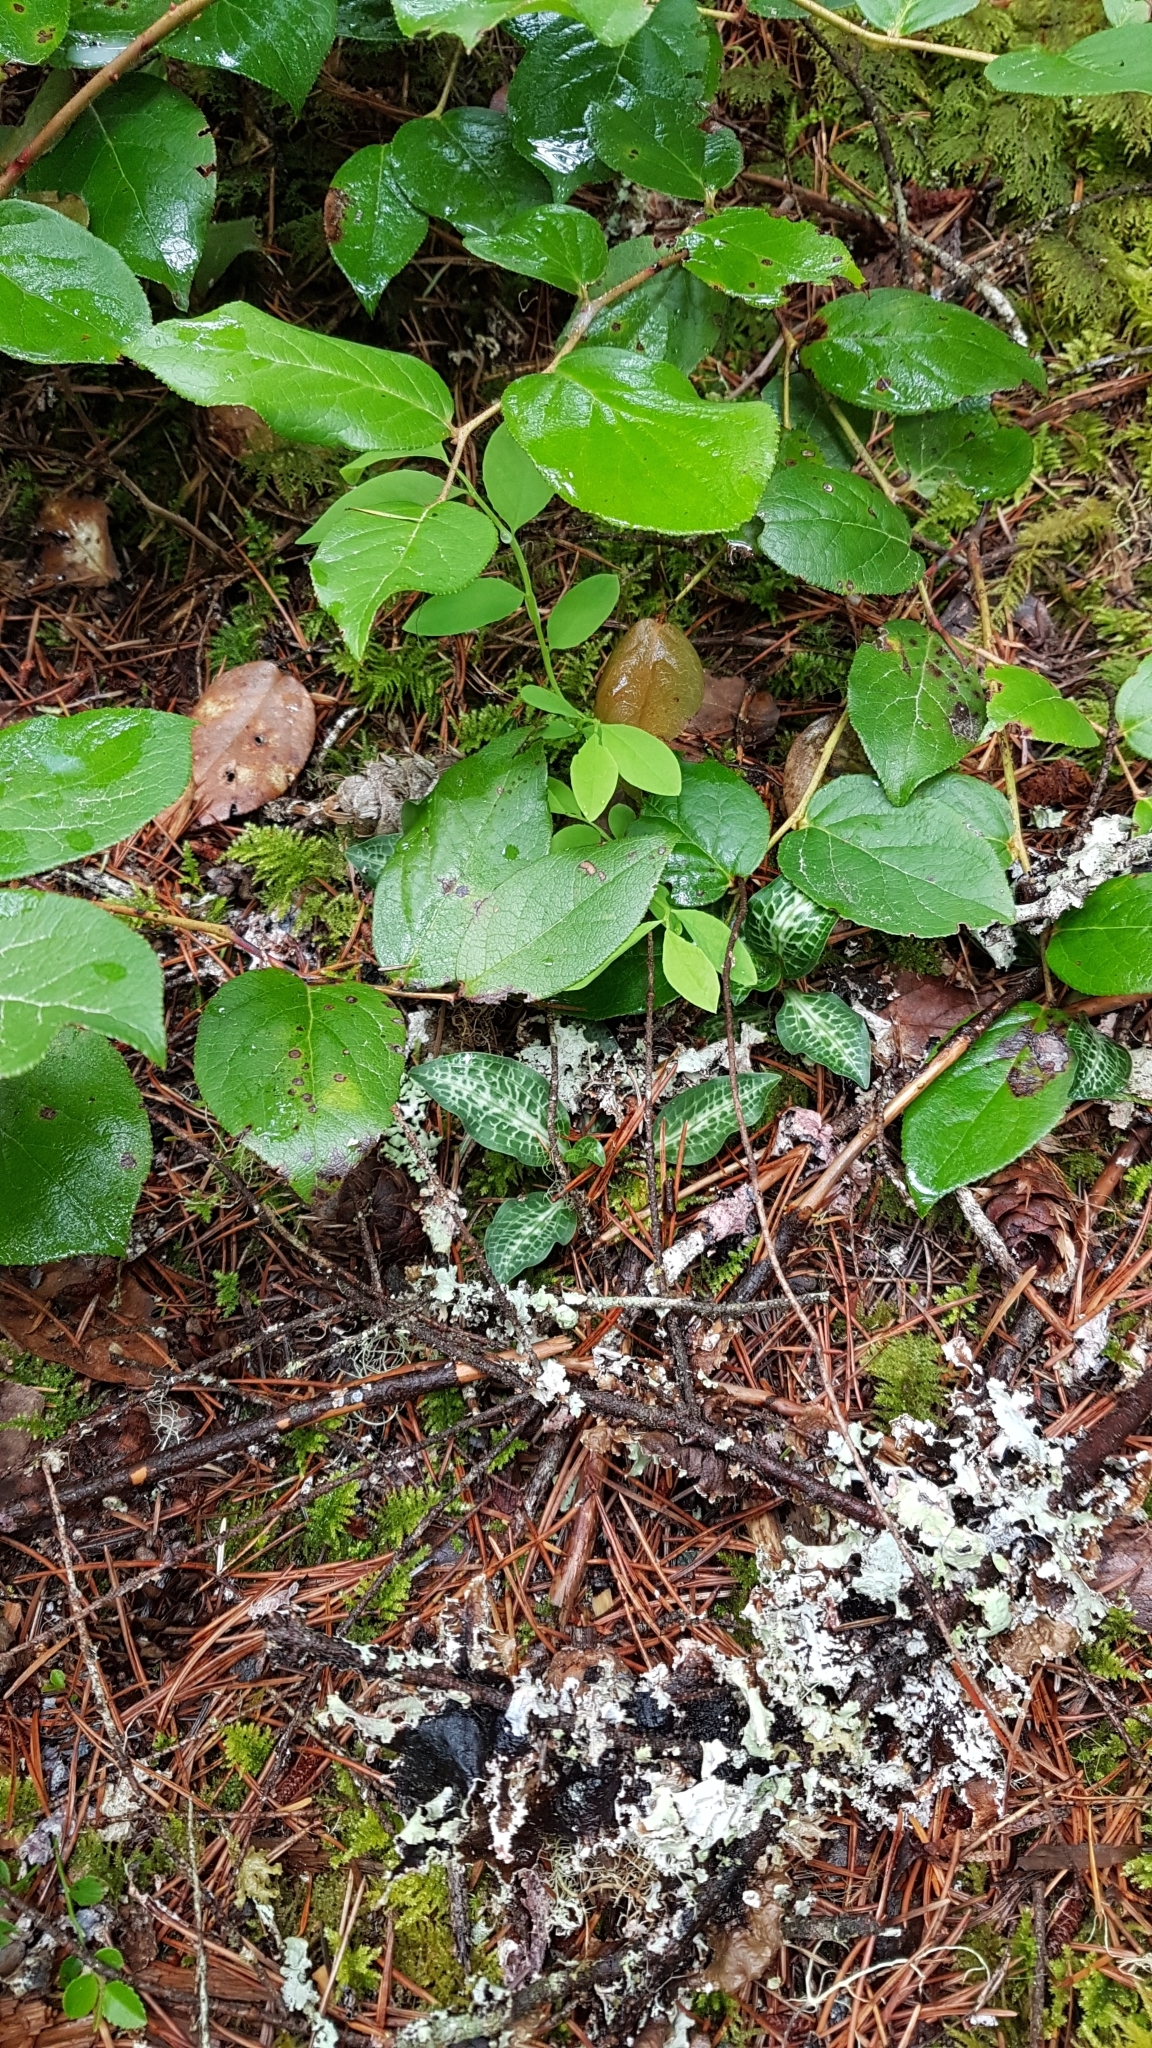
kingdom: Plantae
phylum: Tracheophyta
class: Liliopsida
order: Asparagales
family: Orchidaceae
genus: Goodyera
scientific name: Goodyera oblongifolia
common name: Giant rattlesnake-plantain
